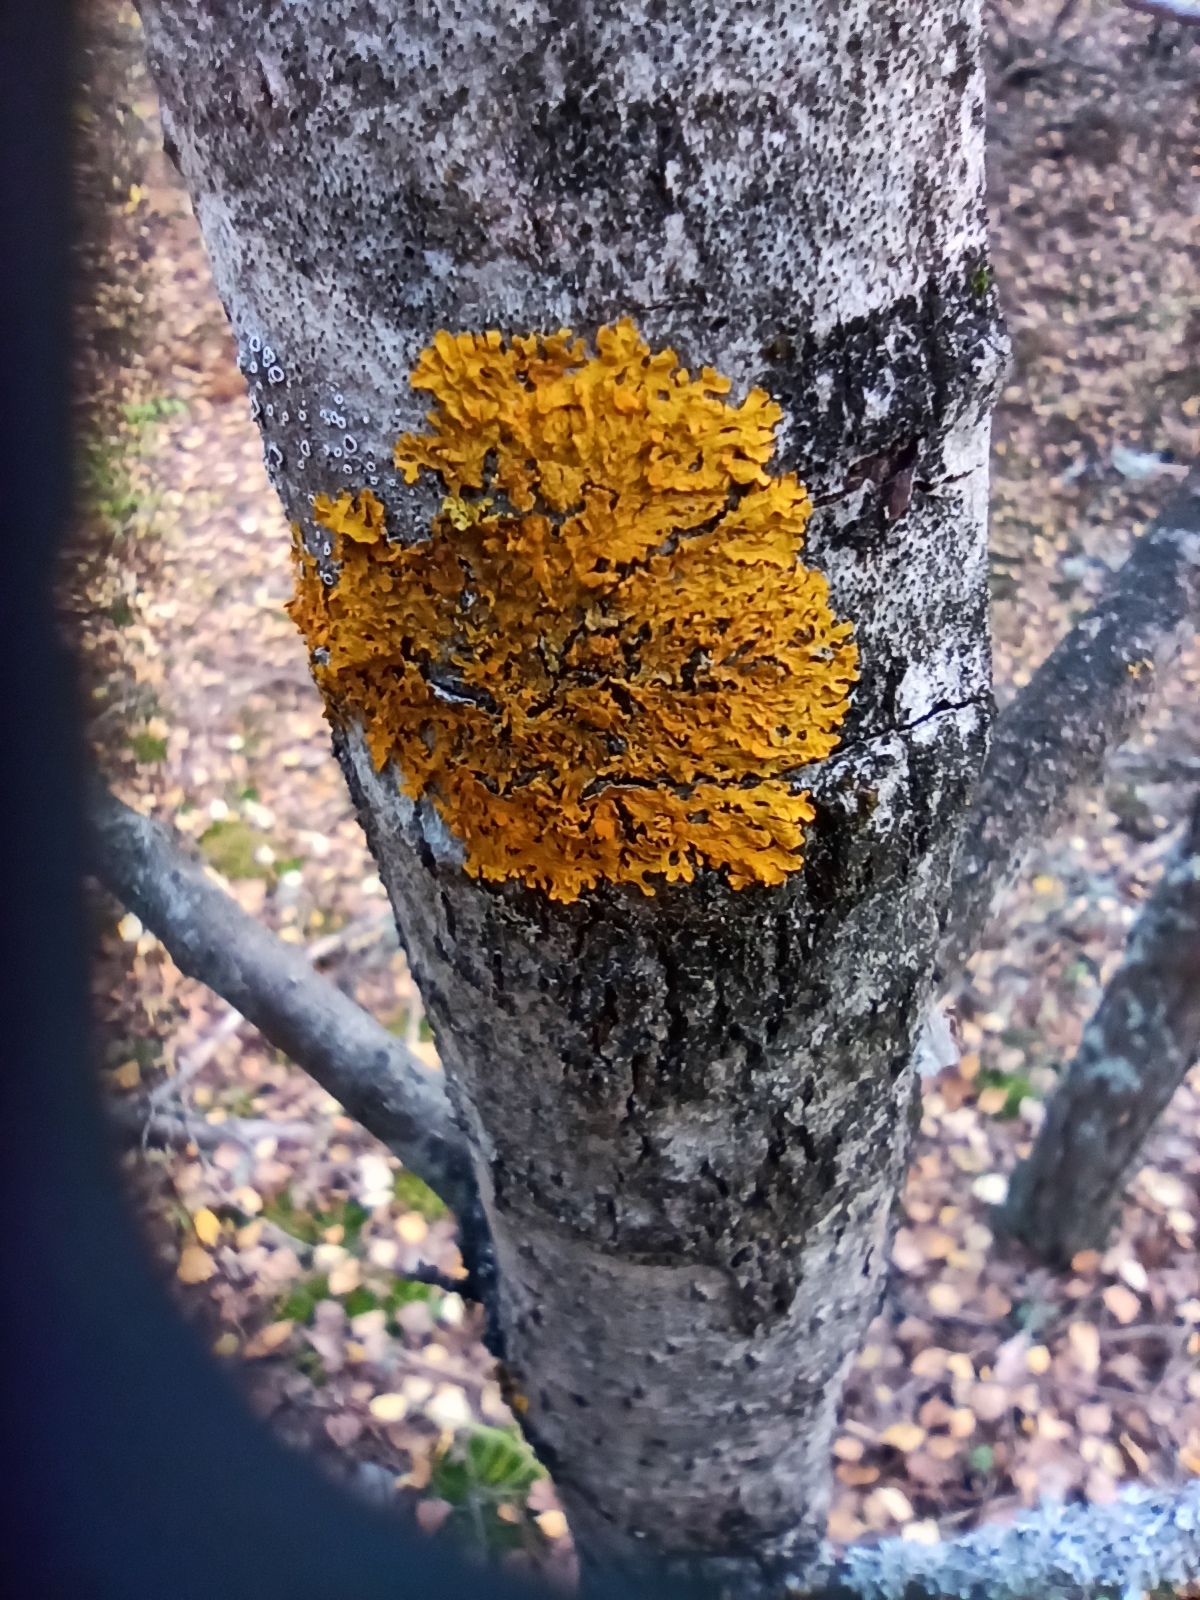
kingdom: Fungi
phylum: Ascomycota
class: Lecanoromycetes
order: Teloschistales
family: Teloschistaceae
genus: Xanthoria
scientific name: Xanthoria parietina
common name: Common orange lichen
